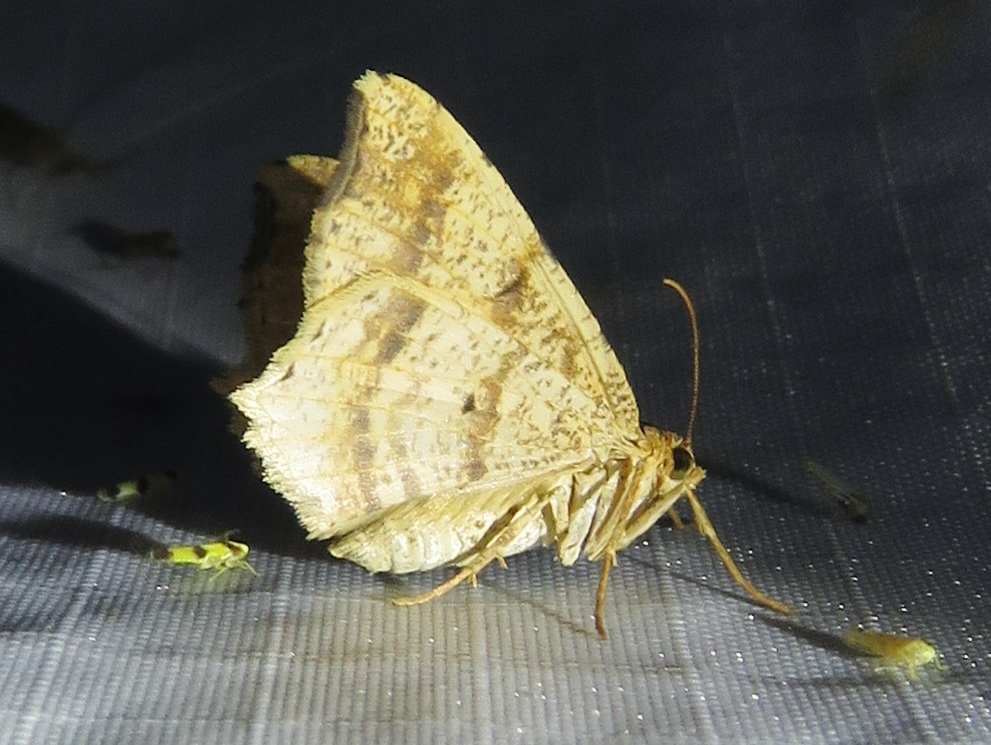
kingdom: Animalia
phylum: Arthropoda
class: Insecta
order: Lepidoptera
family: Geometridae
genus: Macaria
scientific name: Macaria abydata
